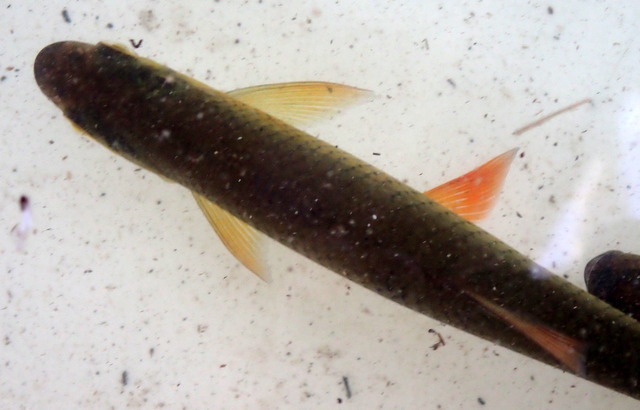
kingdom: Animalia
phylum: Chordata
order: Cypriniformes
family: Cyprinidae
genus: Notemigonus
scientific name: Notemigonus crysoleucas
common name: Golden shiner
